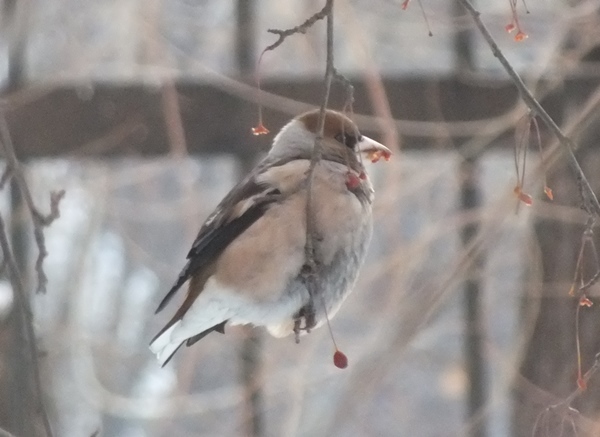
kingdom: Animalia
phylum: Chordata
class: Aves
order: Passeriformes
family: Fringillidae
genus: Coccothraustes
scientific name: Coccothraustes coccothraustes
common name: Hawfinch
